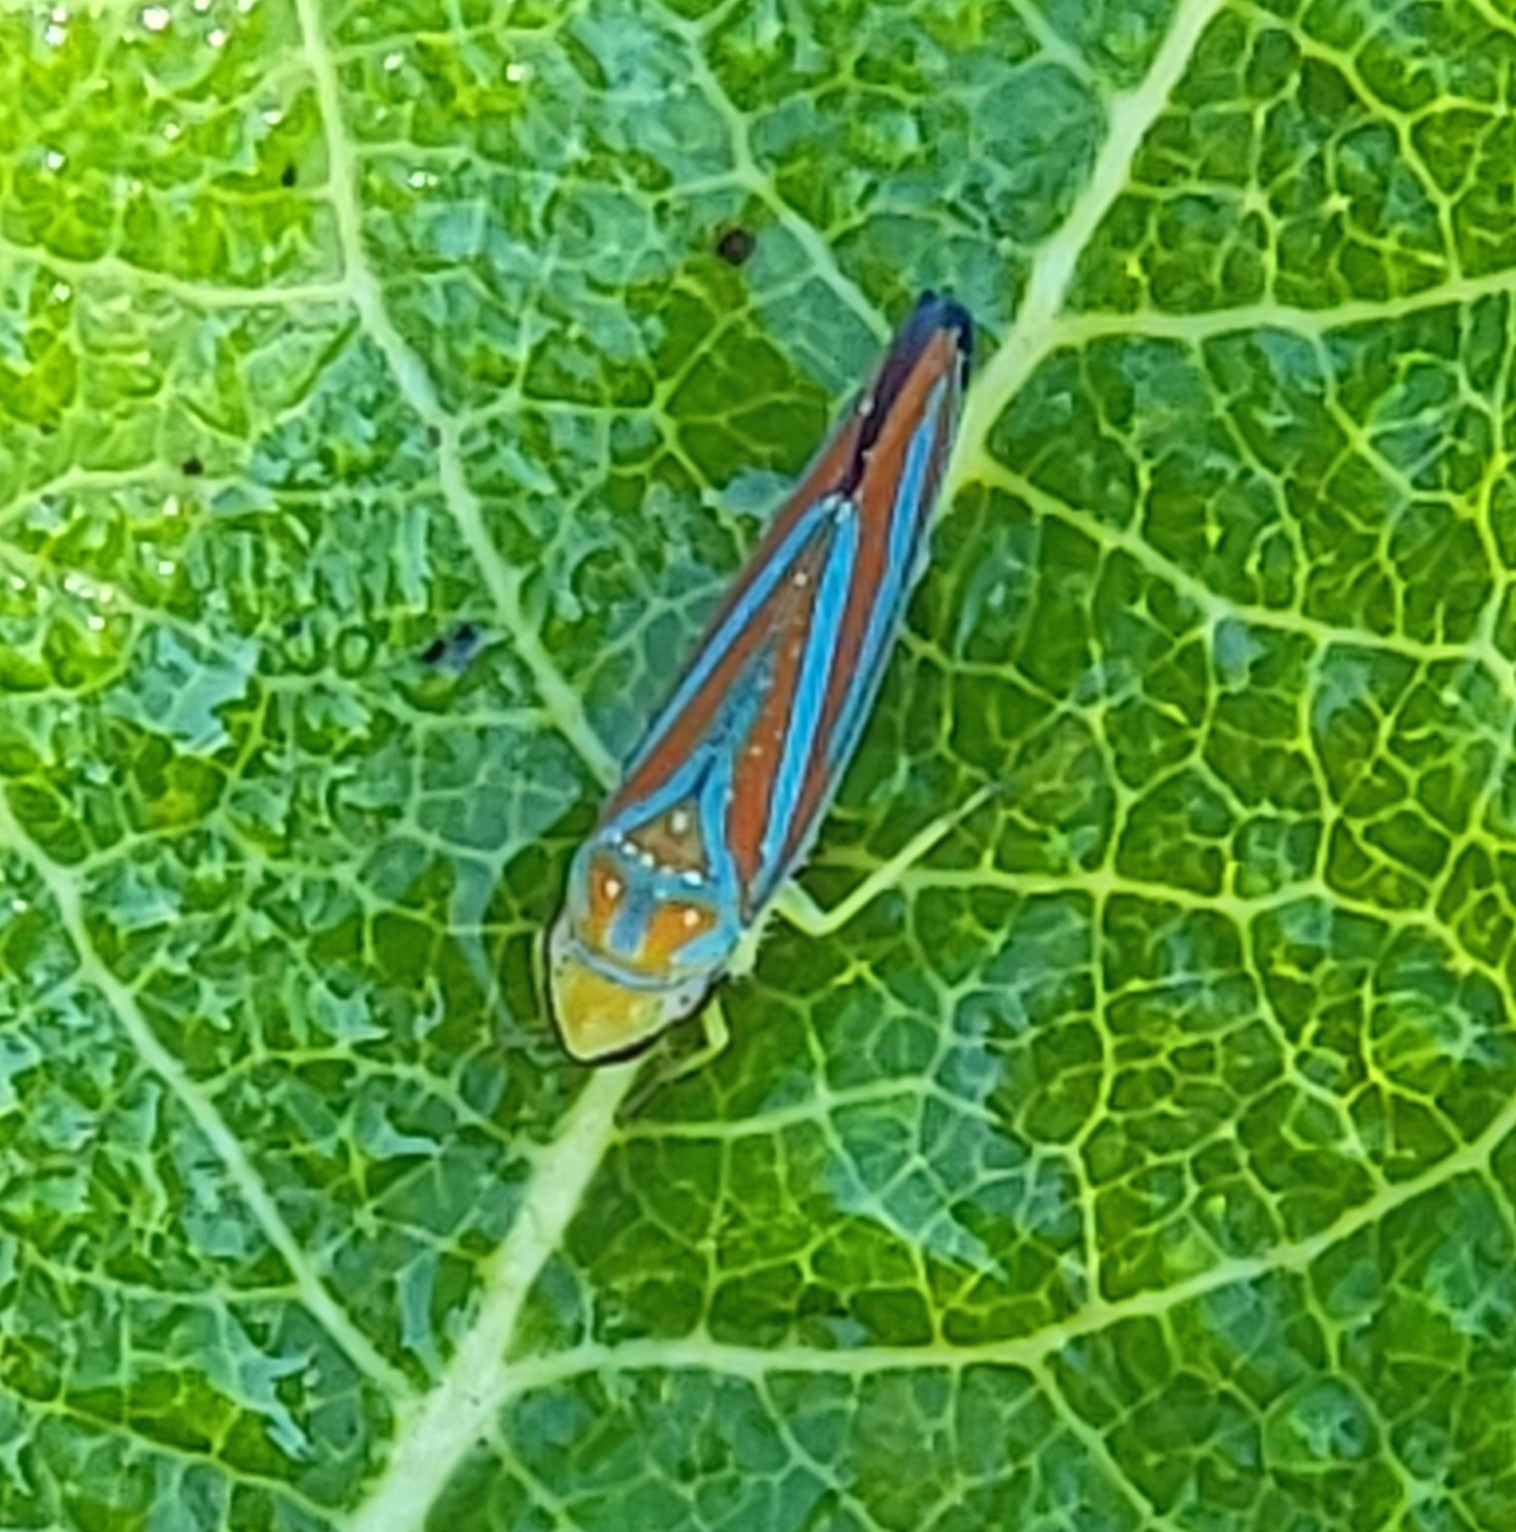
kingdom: Animalia
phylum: Arthropoda
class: Insecta
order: Hemiptera
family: Cicadellidae
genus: Graphocephala
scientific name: Graphocephala coccinea
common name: Candy-striped leafhopper
